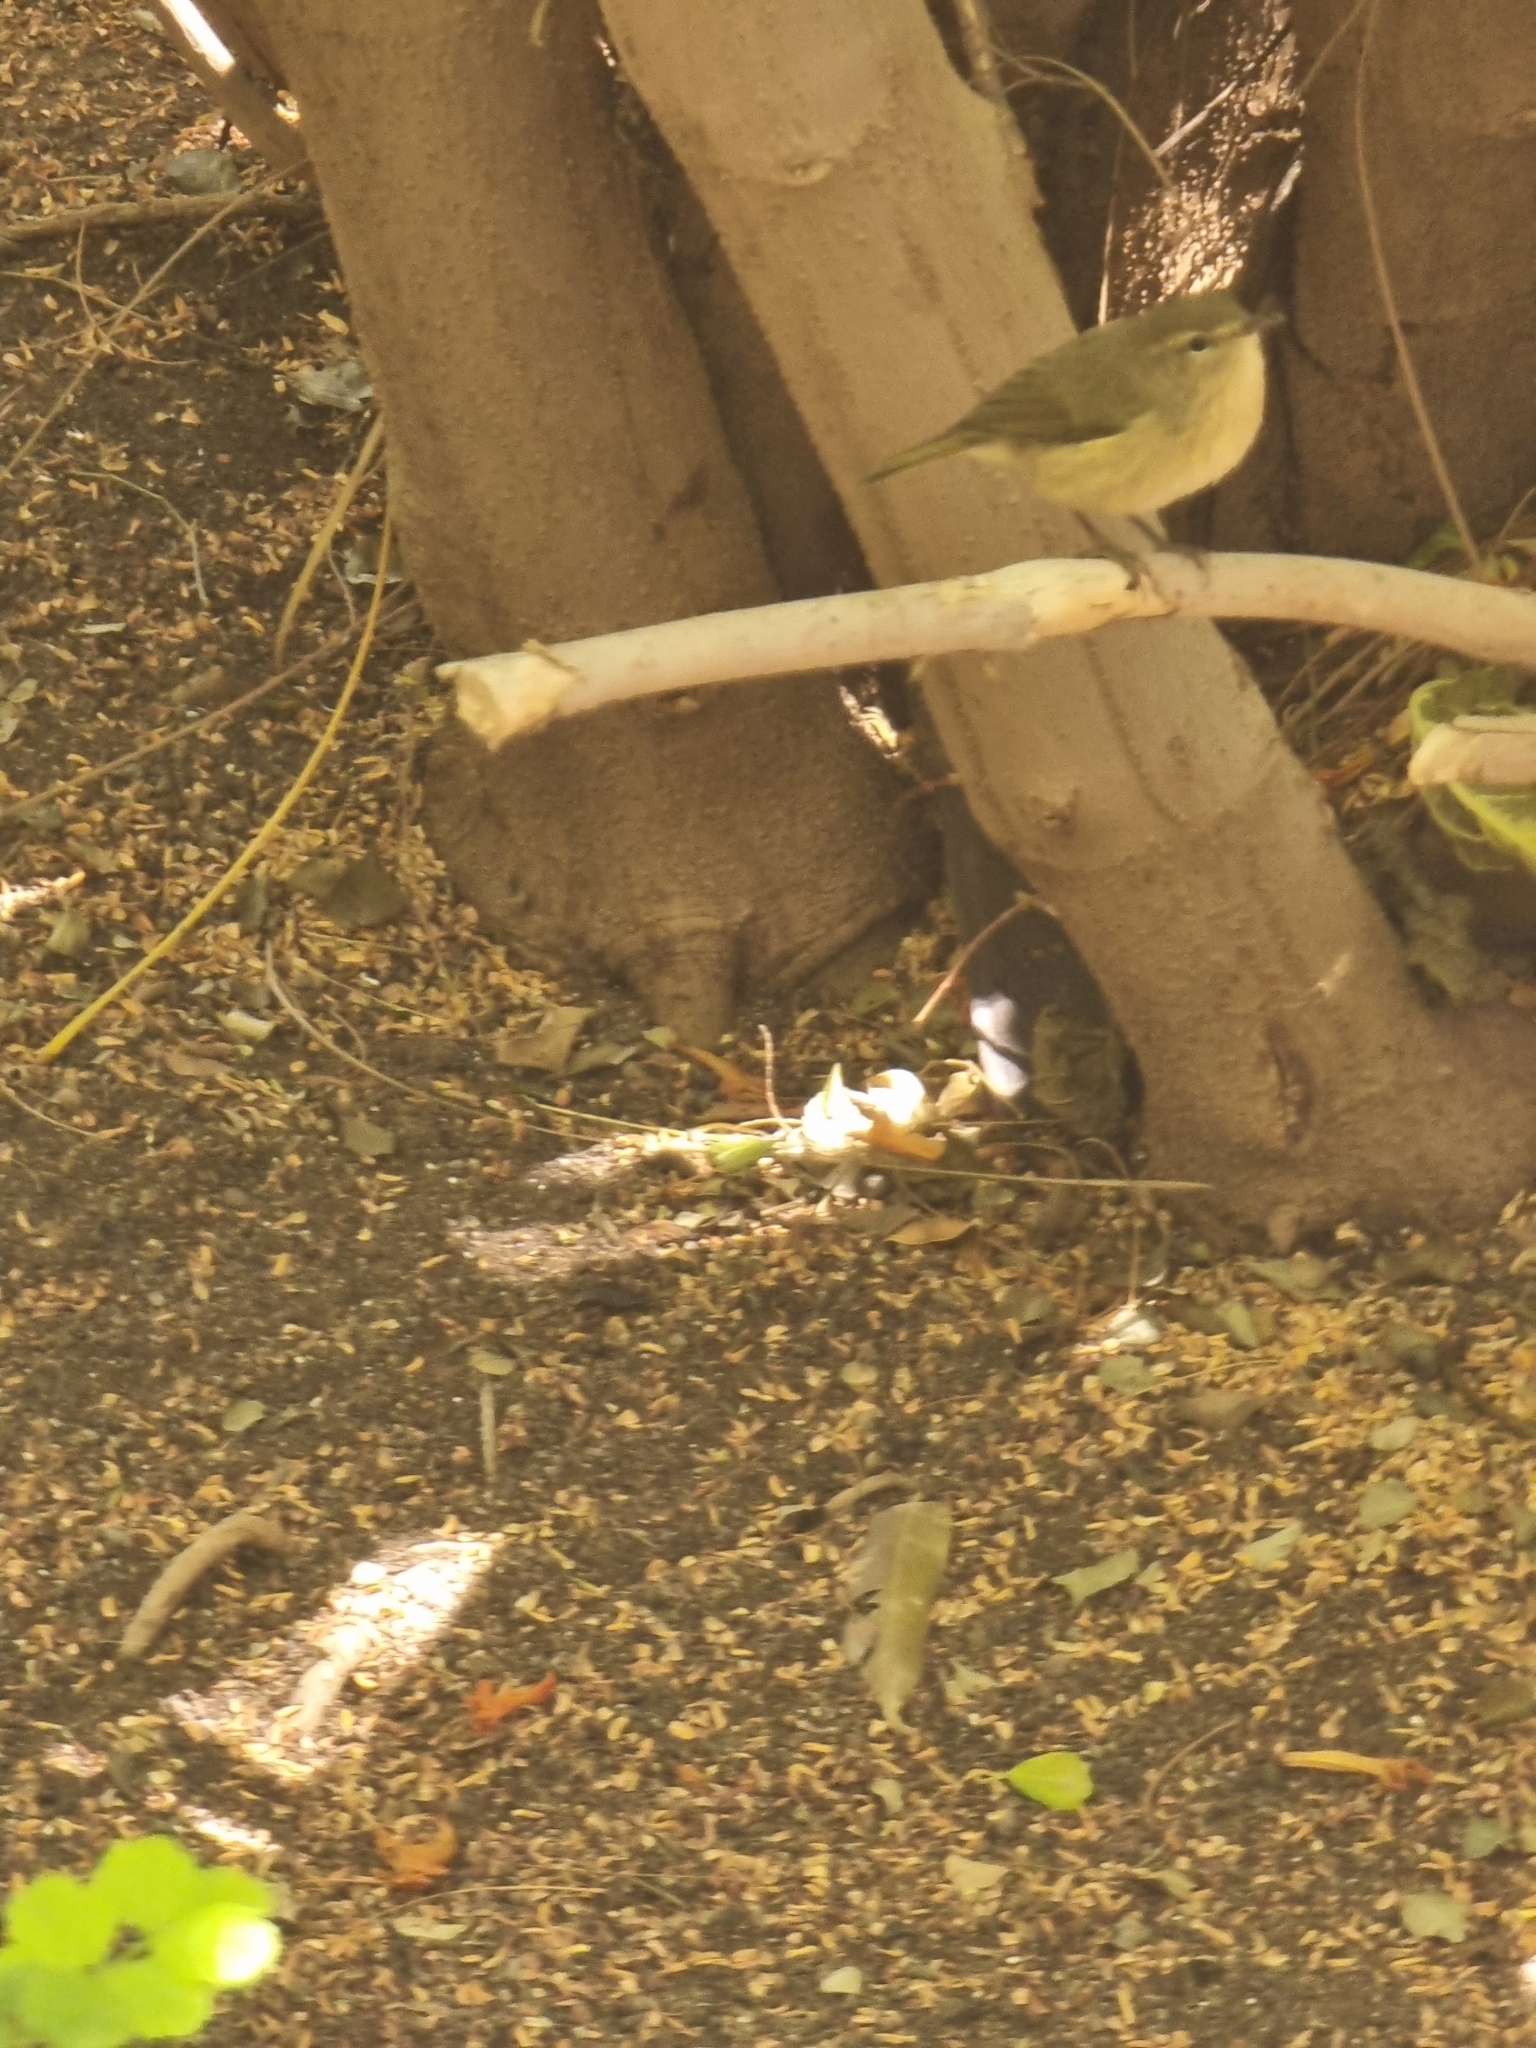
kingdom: Animalia
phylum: Chordata
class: Aves
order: Passeriformes
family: Phylloscopidae
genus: Phylloscopus
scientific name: Phylloscopus canariensis
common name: Canary islands chiffchaff
